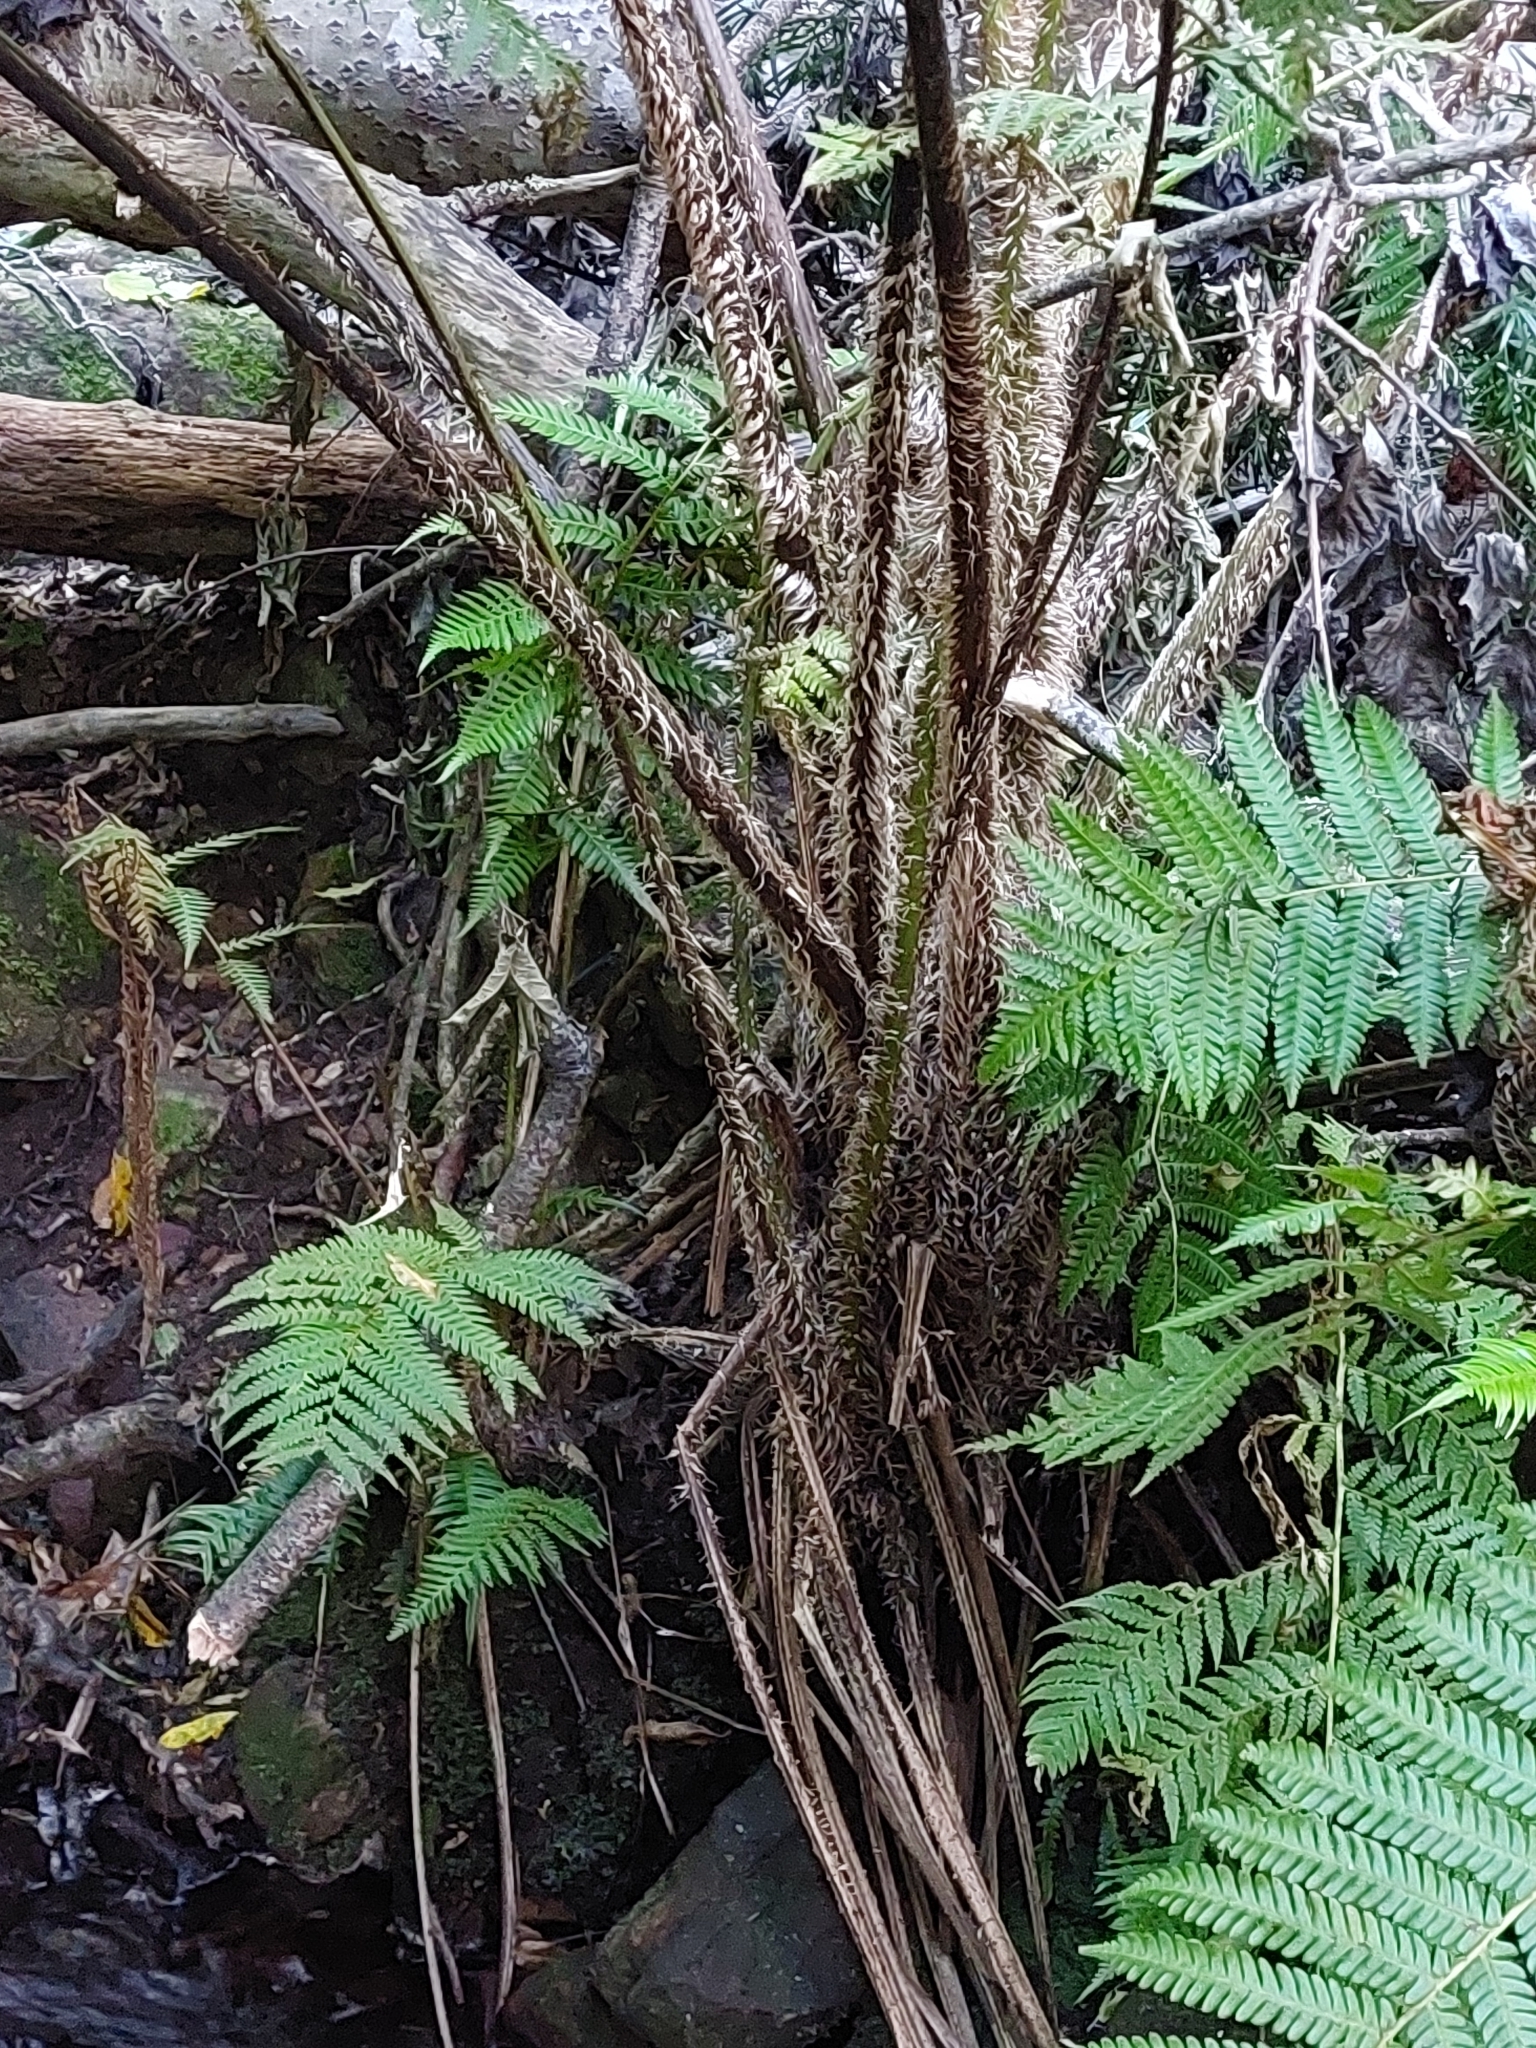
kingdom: Plantae
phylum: Tracheophyta
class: Polypodiopsida
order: Cyatheales
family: Cyatheaceae
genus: Sphaeropteris
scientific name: Sphaeropteris cooperi
